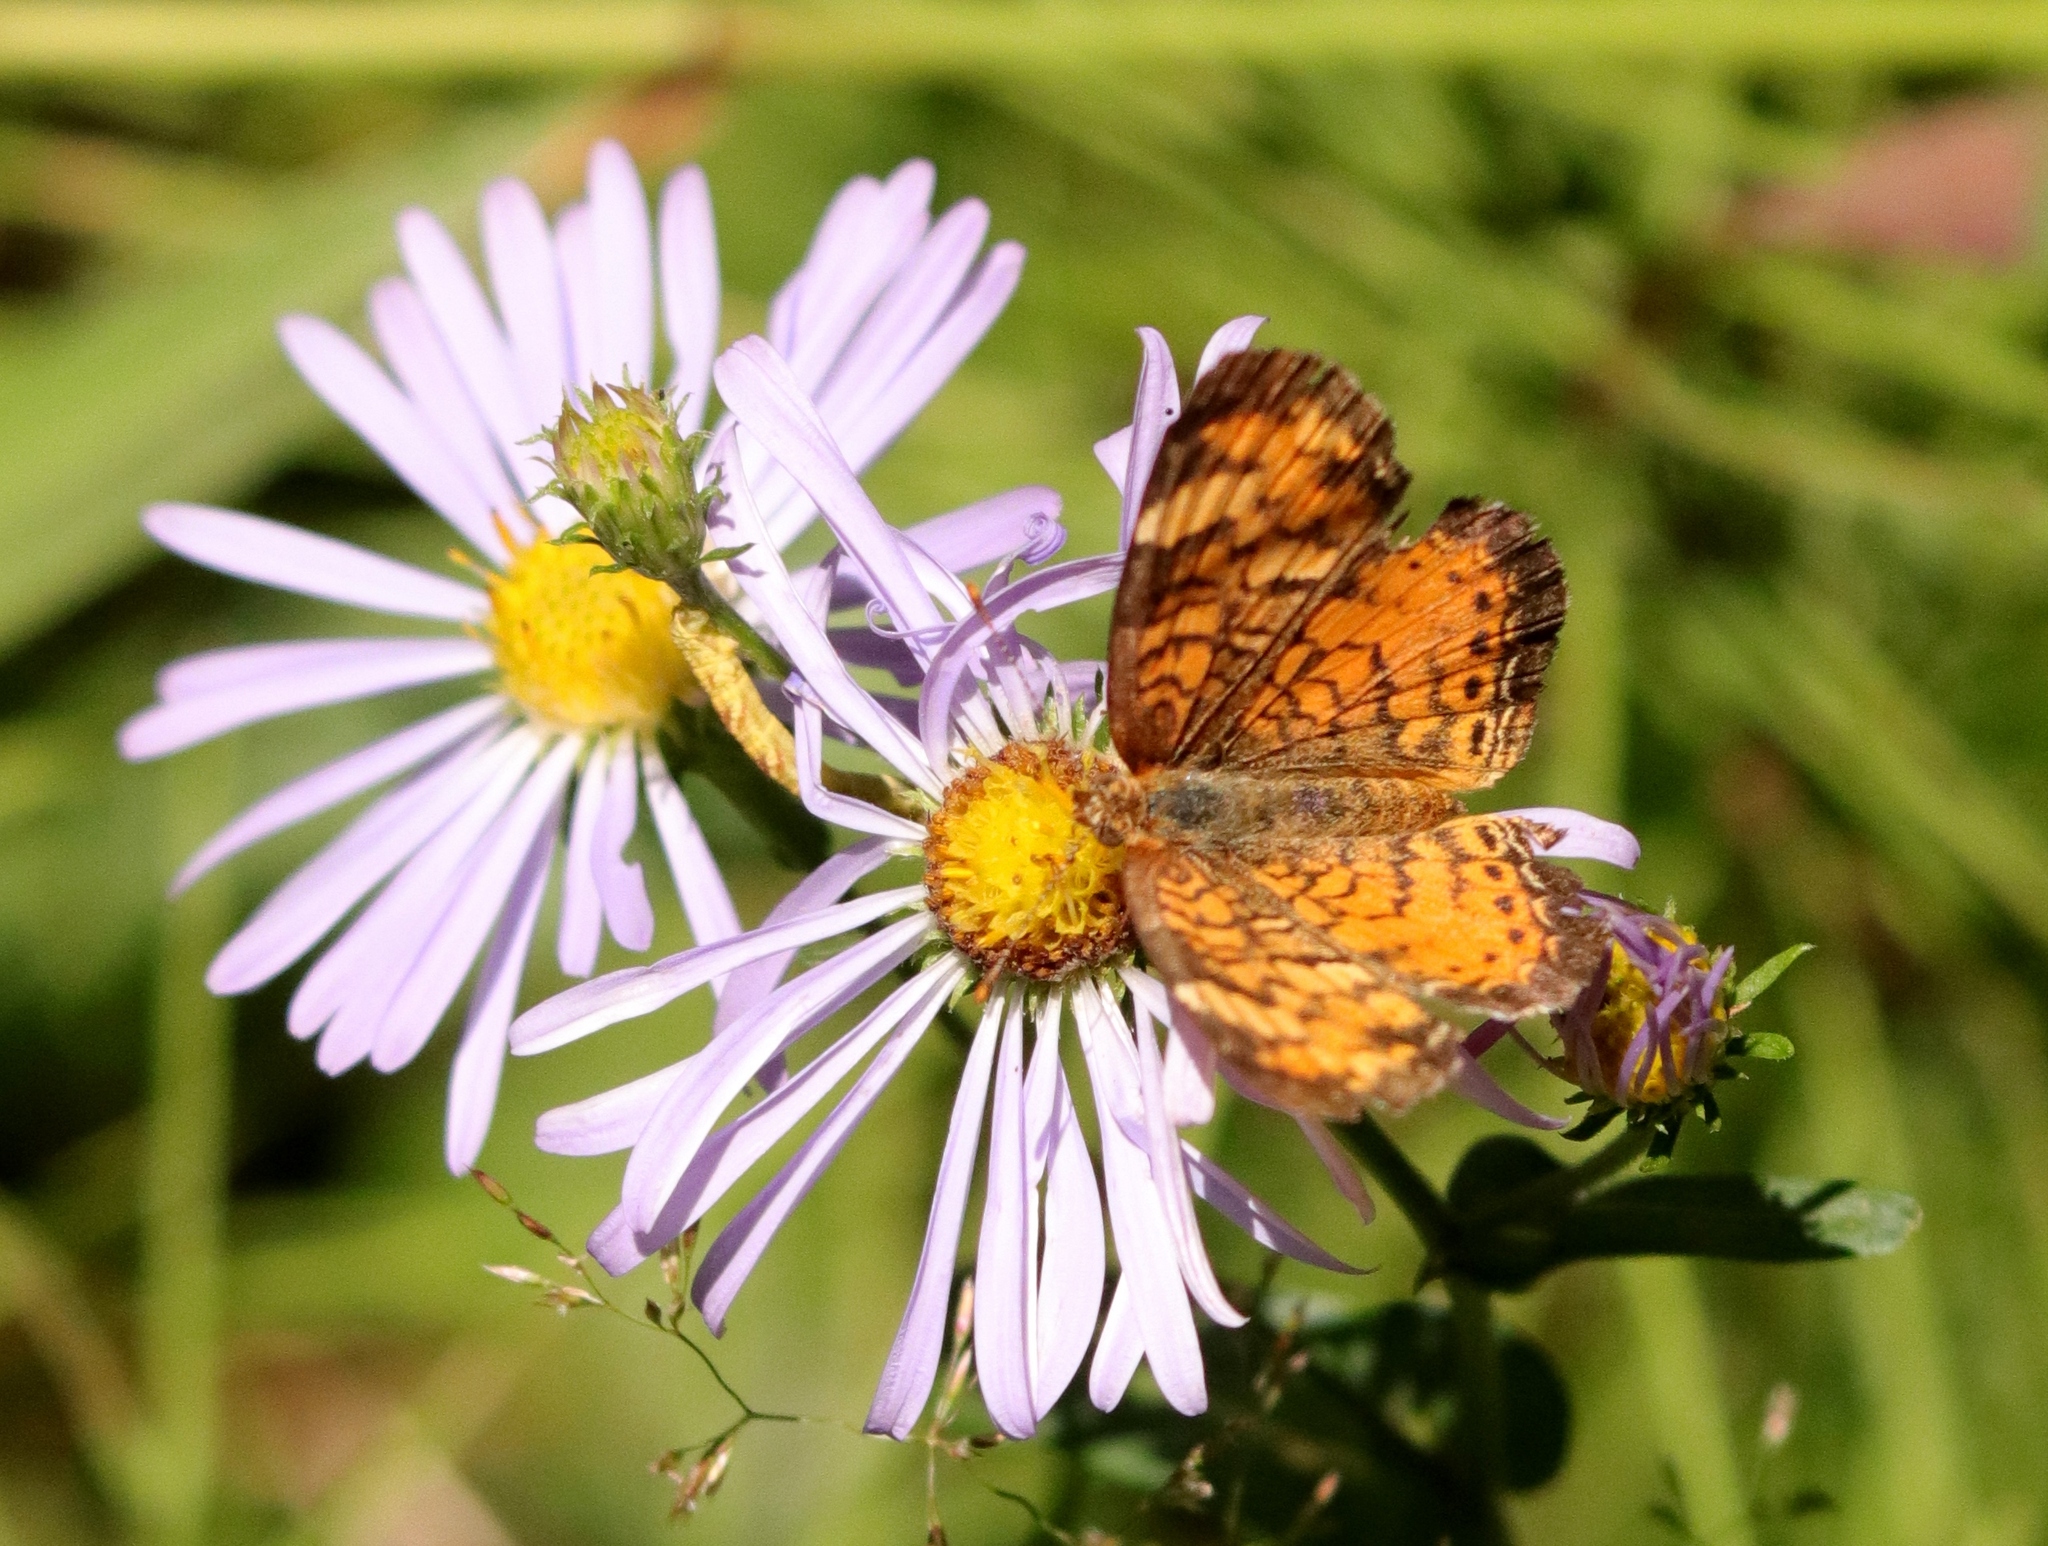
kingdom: Animalia
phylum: Arthropoda
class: Insecta
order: Lepidoptera
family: Nymphalidae
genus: Phyciodes
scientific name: Phyciodes tharos
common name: Pearl crescent
